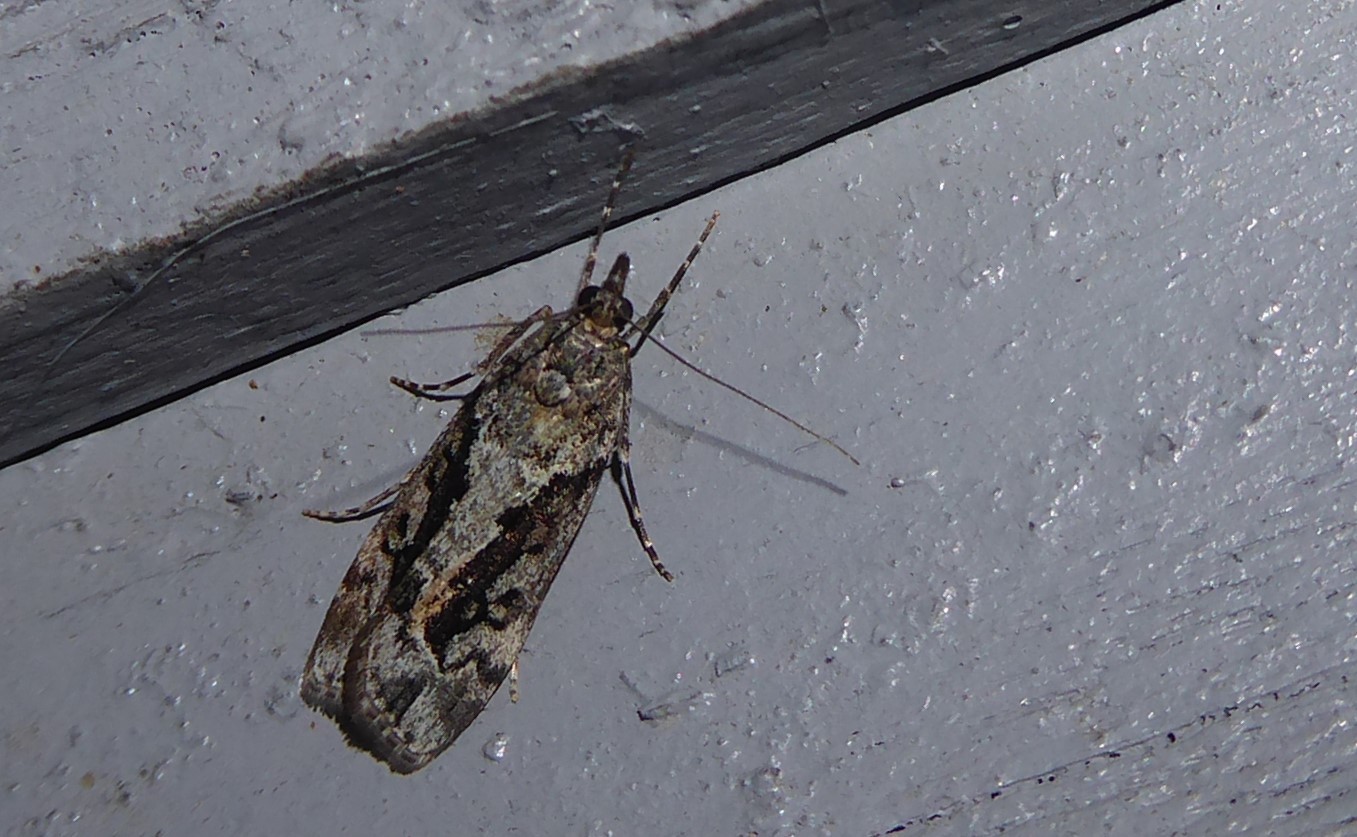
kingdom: Animalia
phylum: Arthropoda
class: Insecta
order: Lepidoptera
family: Crambidae
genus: Eudonia
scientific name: Eudonia submarginalis
